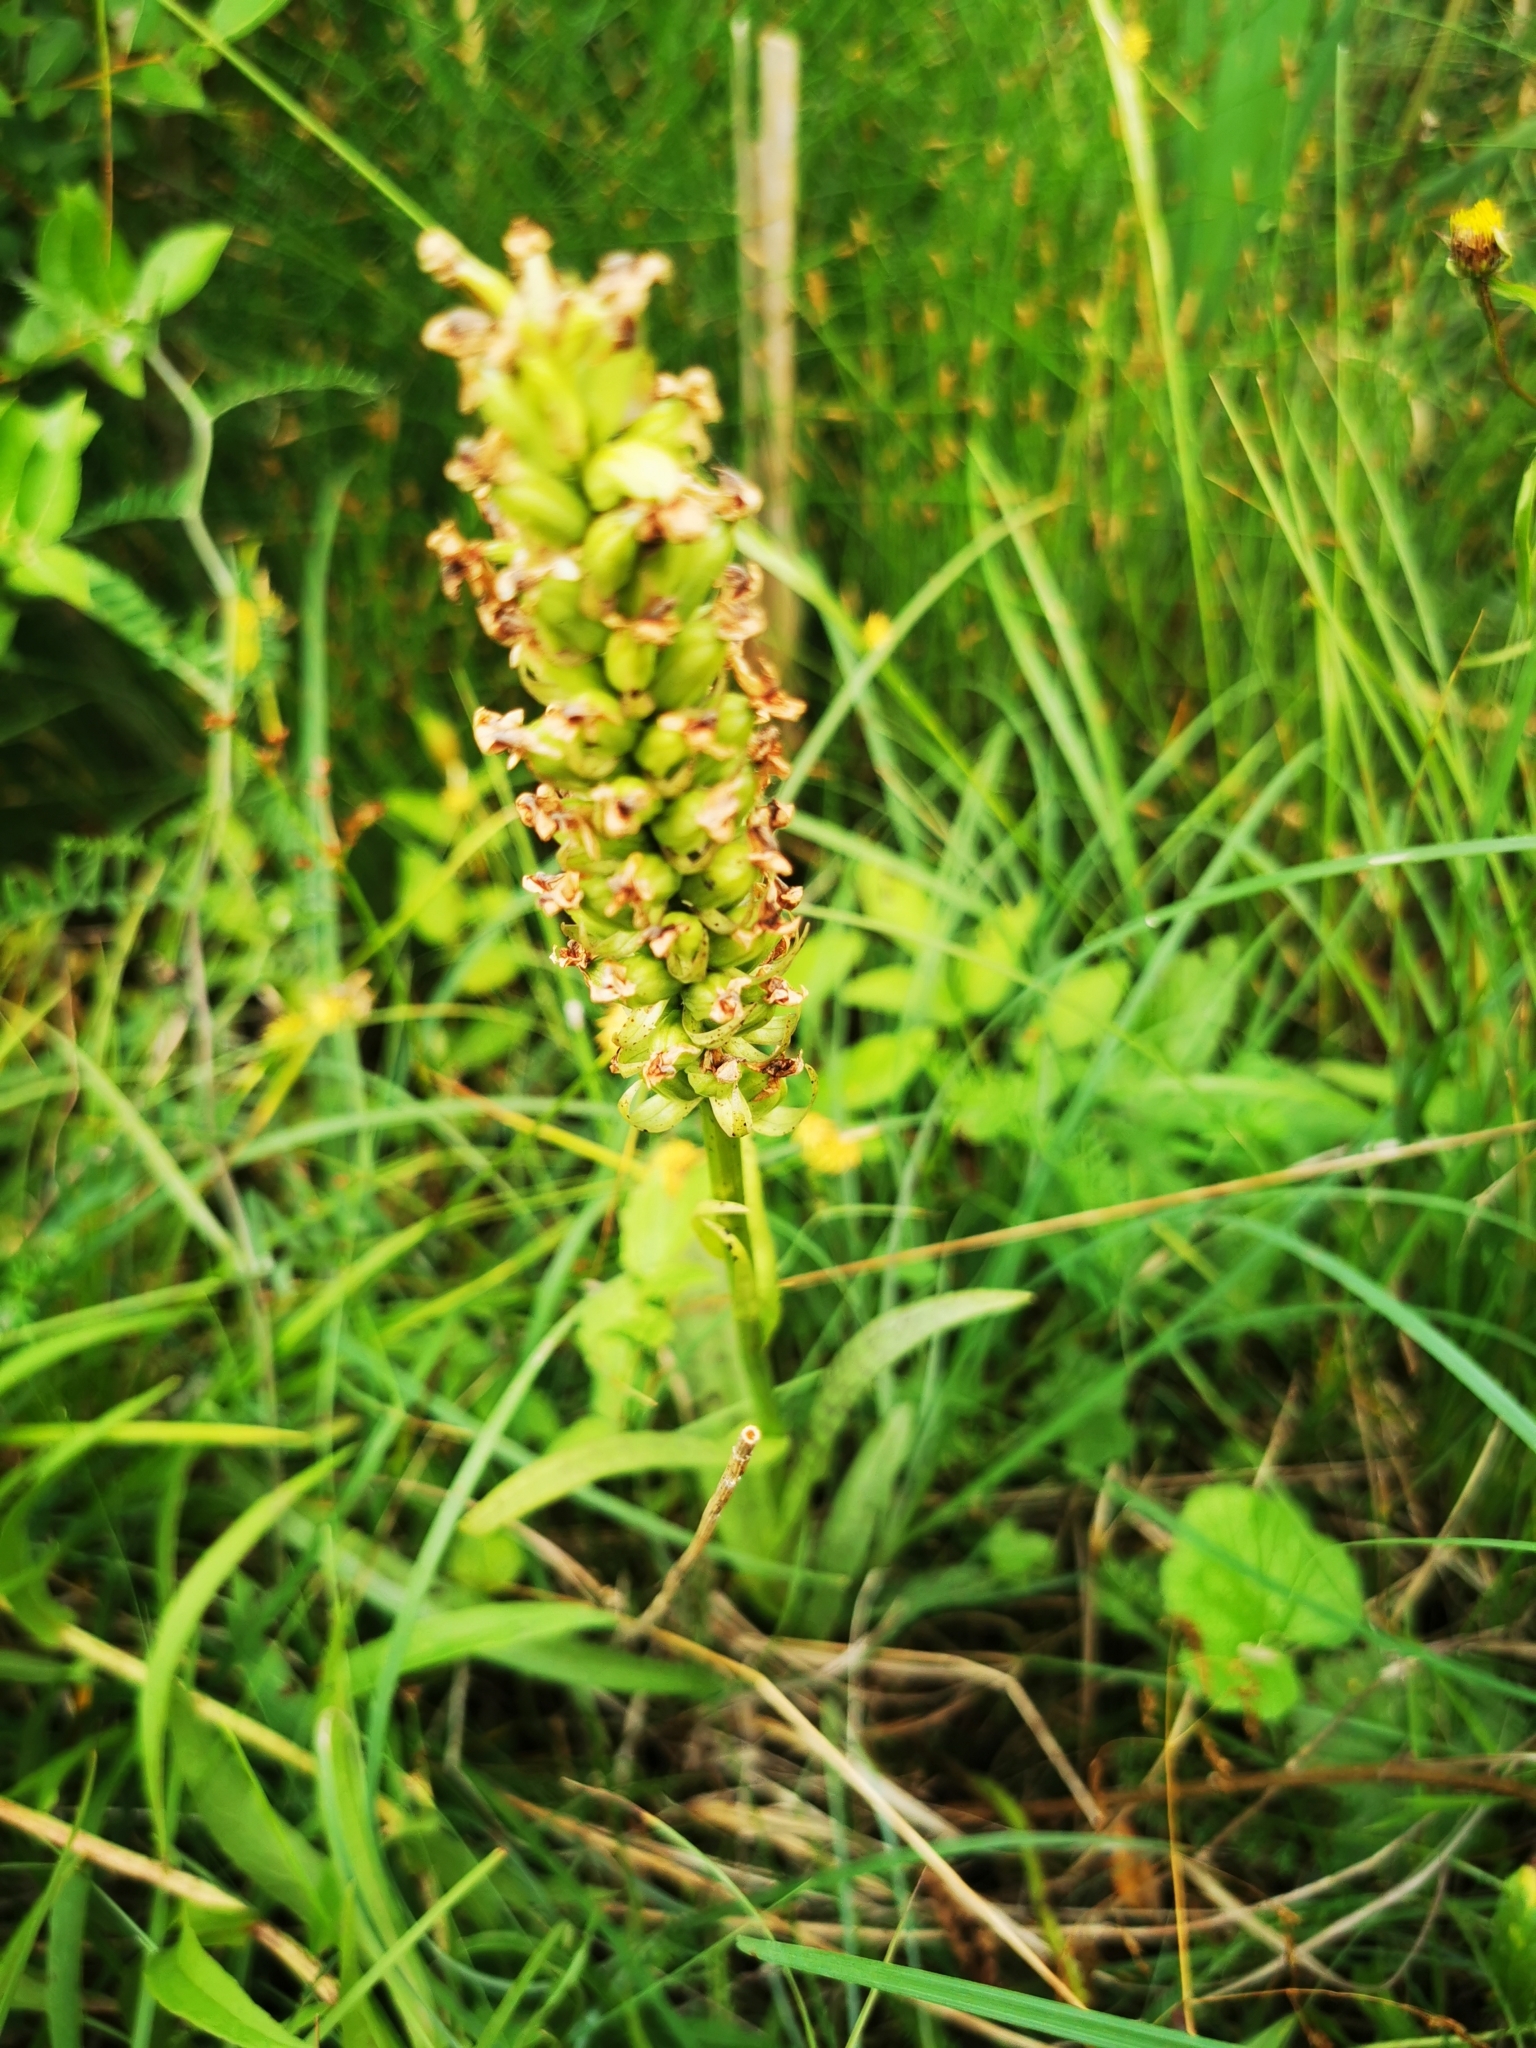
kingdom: Plantae
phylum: Tracheophyta
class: Liliopsida
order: Asparagales
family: Orchidaceae
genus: Dactylorhiza
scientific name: Dactylorhiza majalis
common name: Marsh orchid
